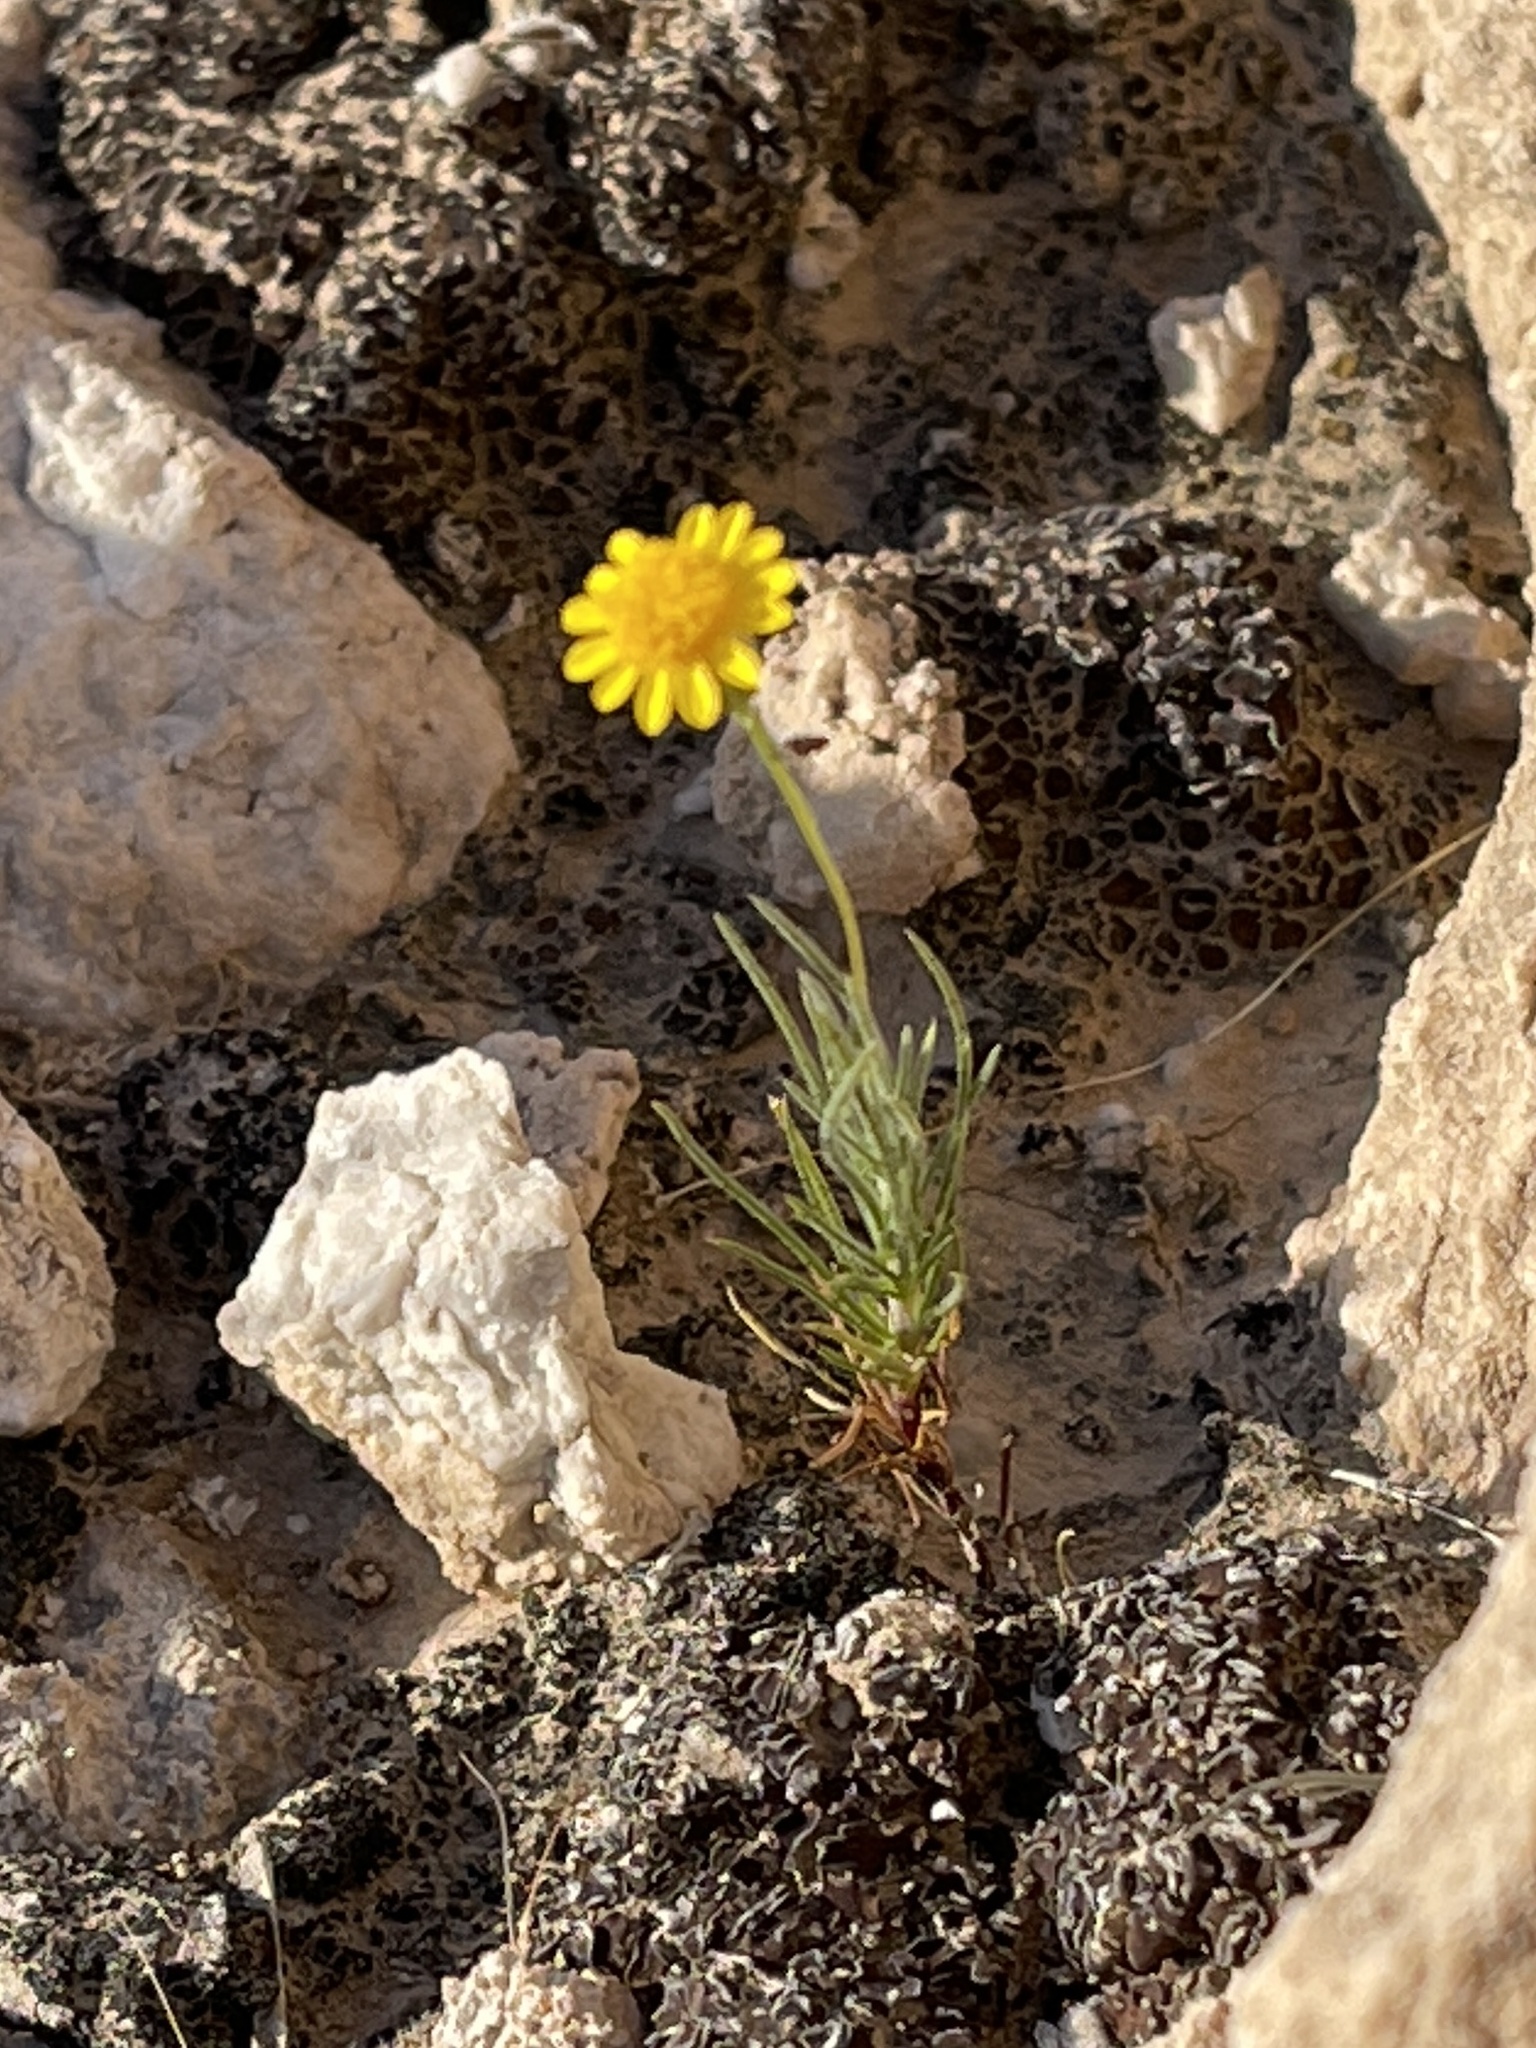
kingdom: Plantae
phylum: Tracheophyta
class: Magnoliopsida
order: Asterales
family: Asteraceae
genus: Thymophylla
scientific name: Thymophylla pentachaeta
